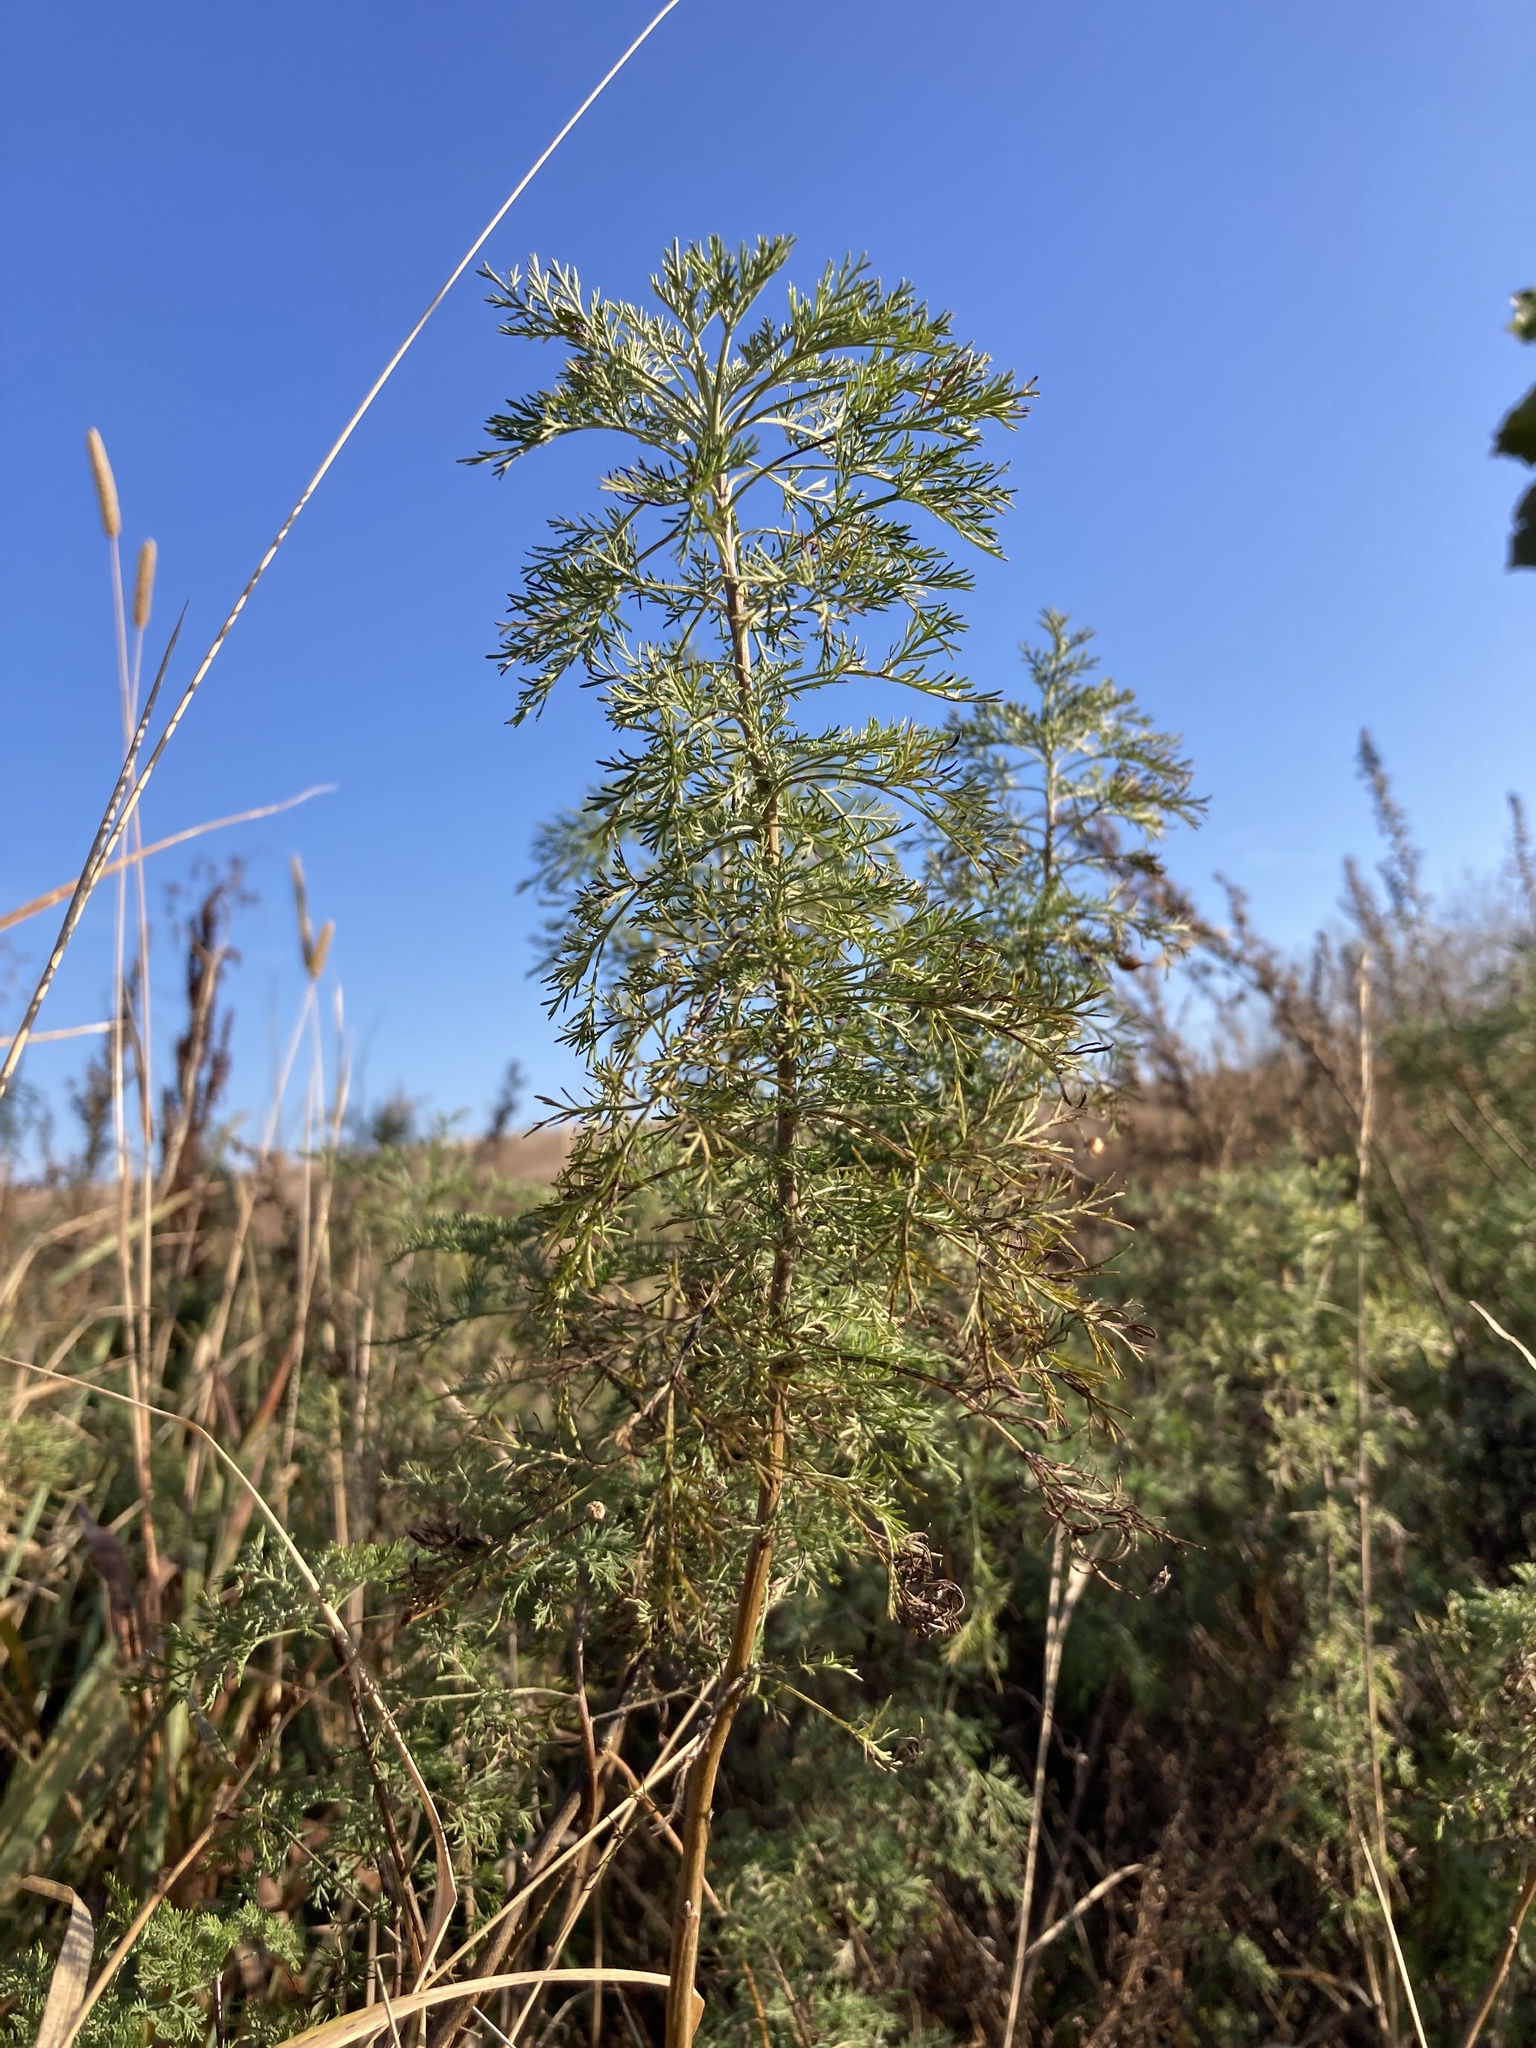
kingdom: Plantae
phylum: Tracheophyta
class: Magnoliopsida
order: Asterales
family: Asteraceae
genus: Artemisia
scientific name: Artemisia abrotanum
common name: Southernwood
